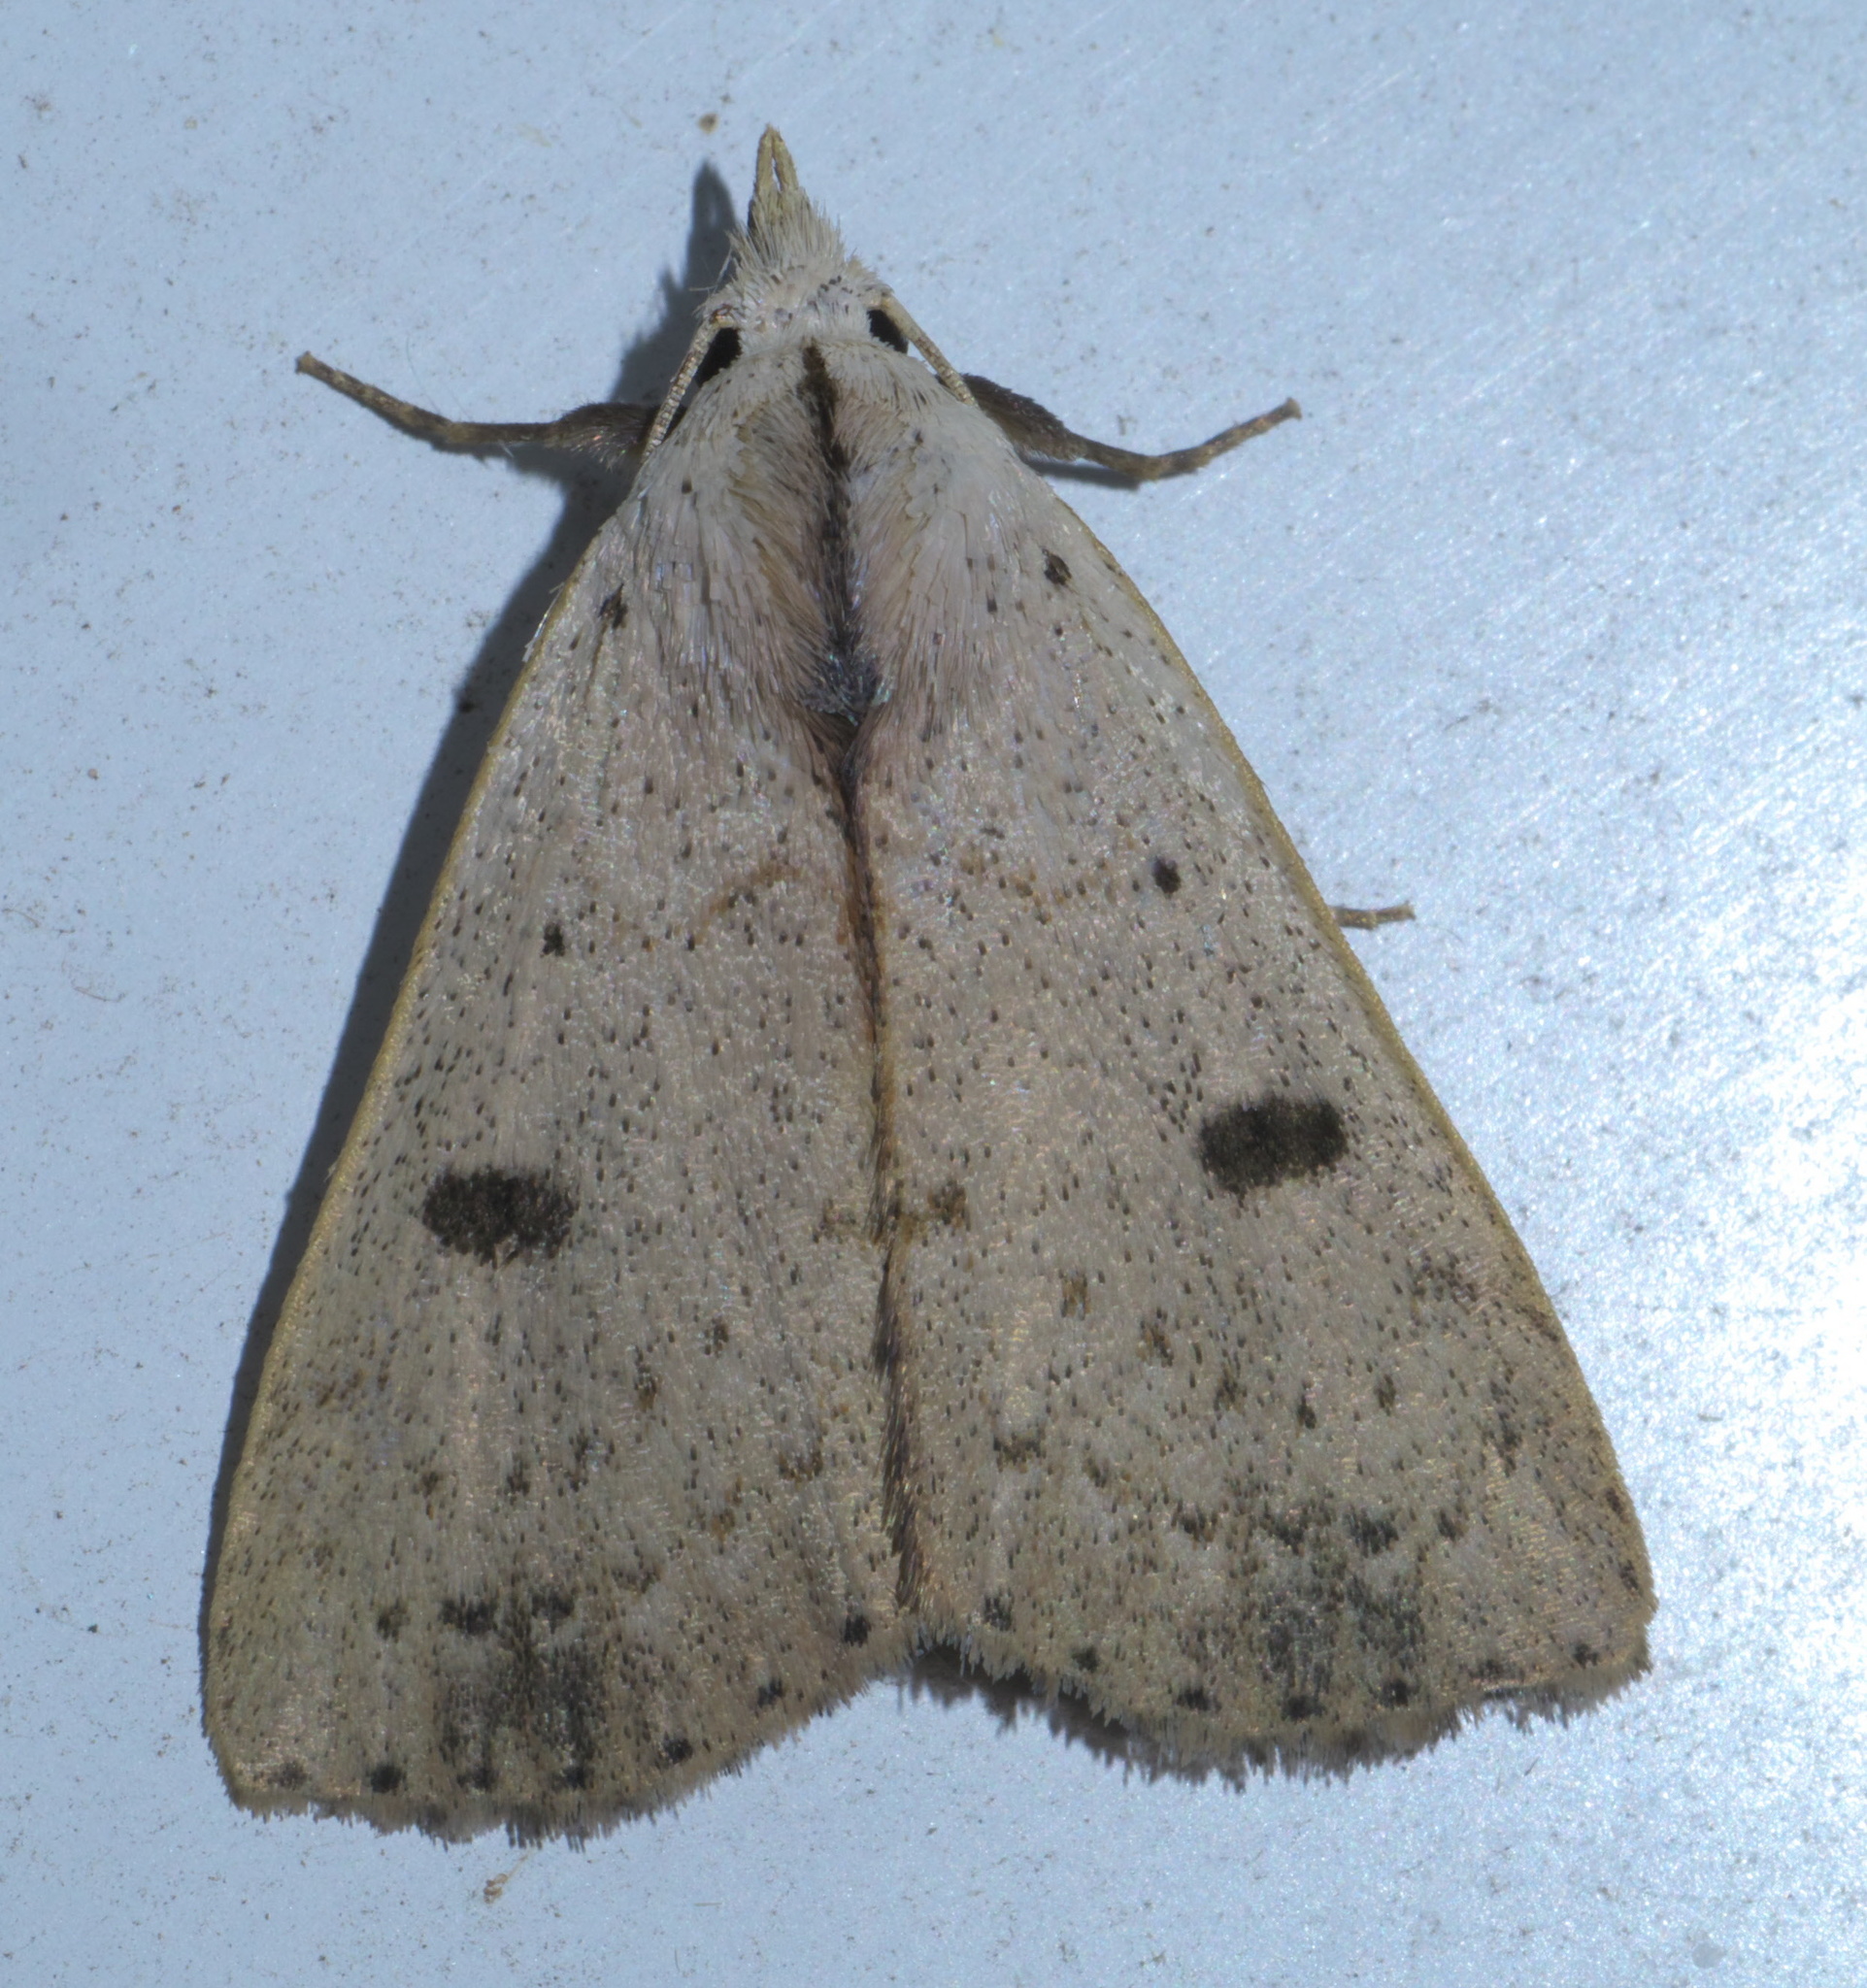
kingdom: Animalia
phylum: Arthropoda
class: Insecta
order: Lepidoptera
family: Erebidae
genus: Scolecocampa
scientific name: Scolecocampa liburna
